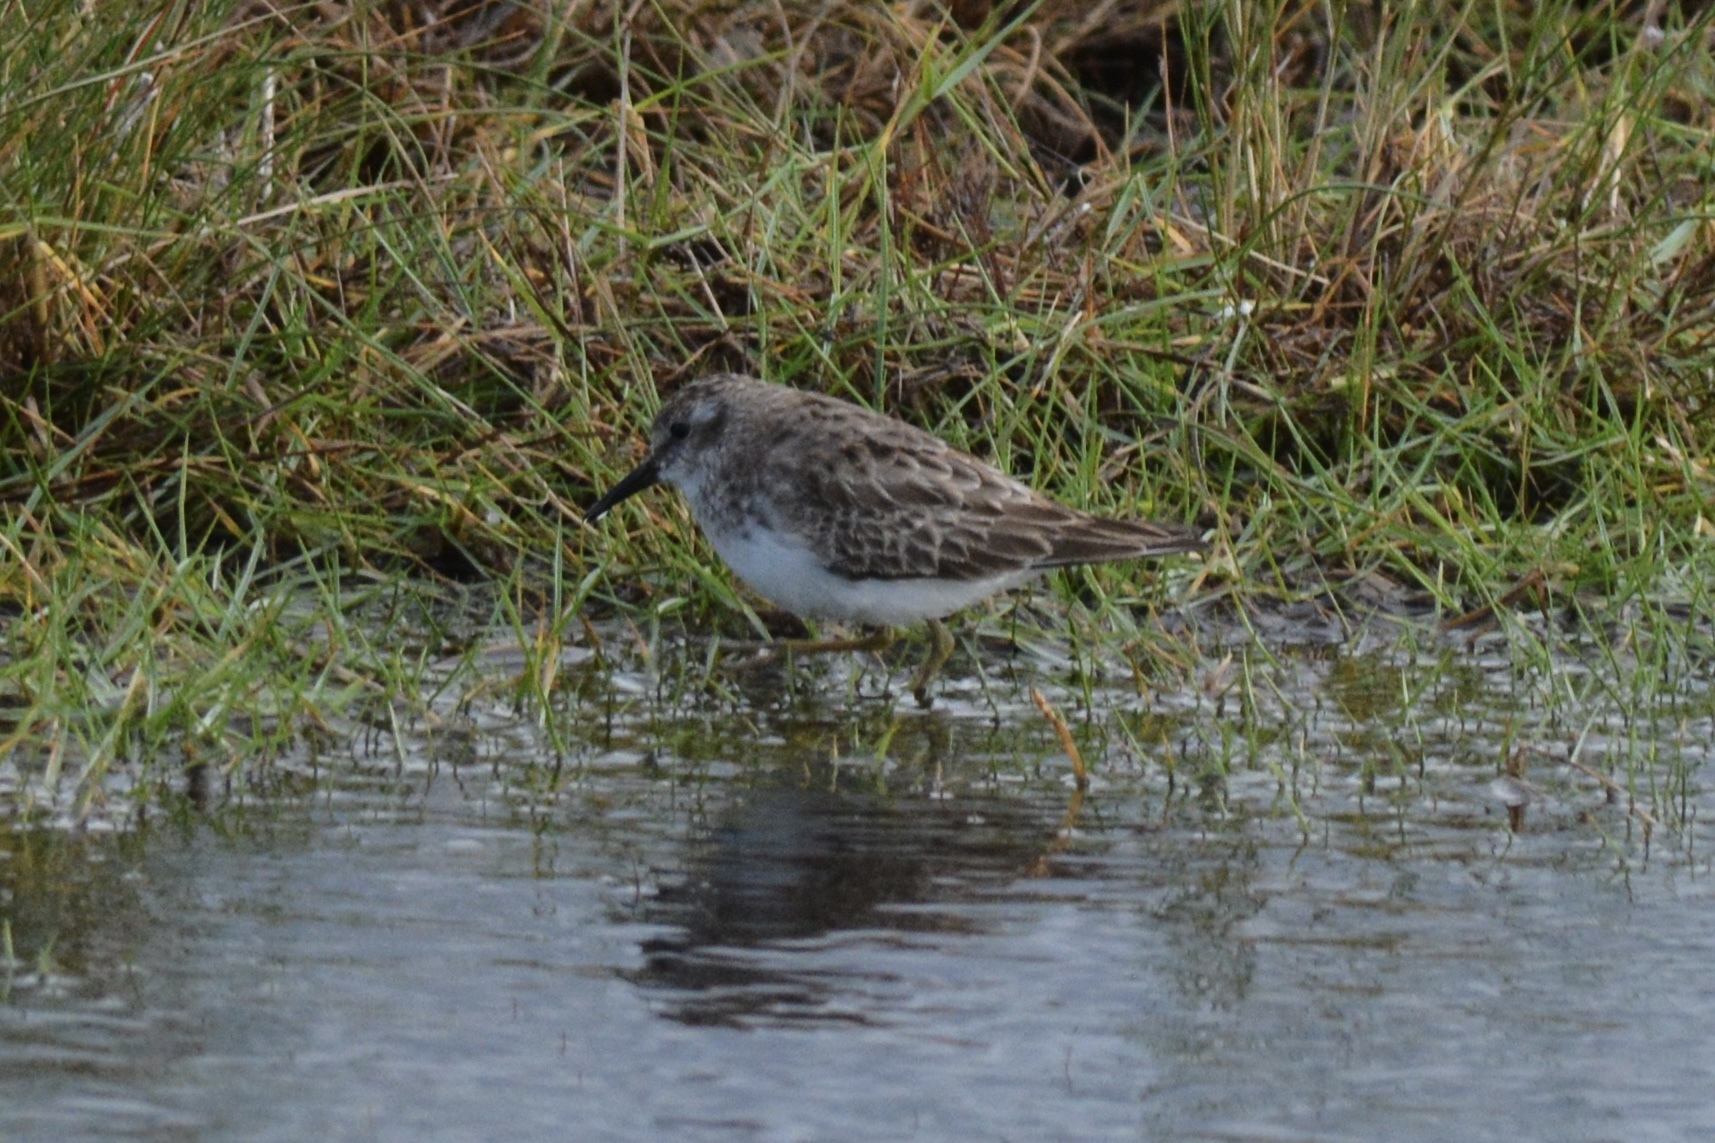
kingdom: Animalia
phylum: Chordata
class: Aves
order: Charadriiformes
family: Scolopacidae
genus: Calidris
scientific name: Calidris minutilla
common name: Least sandpiper
